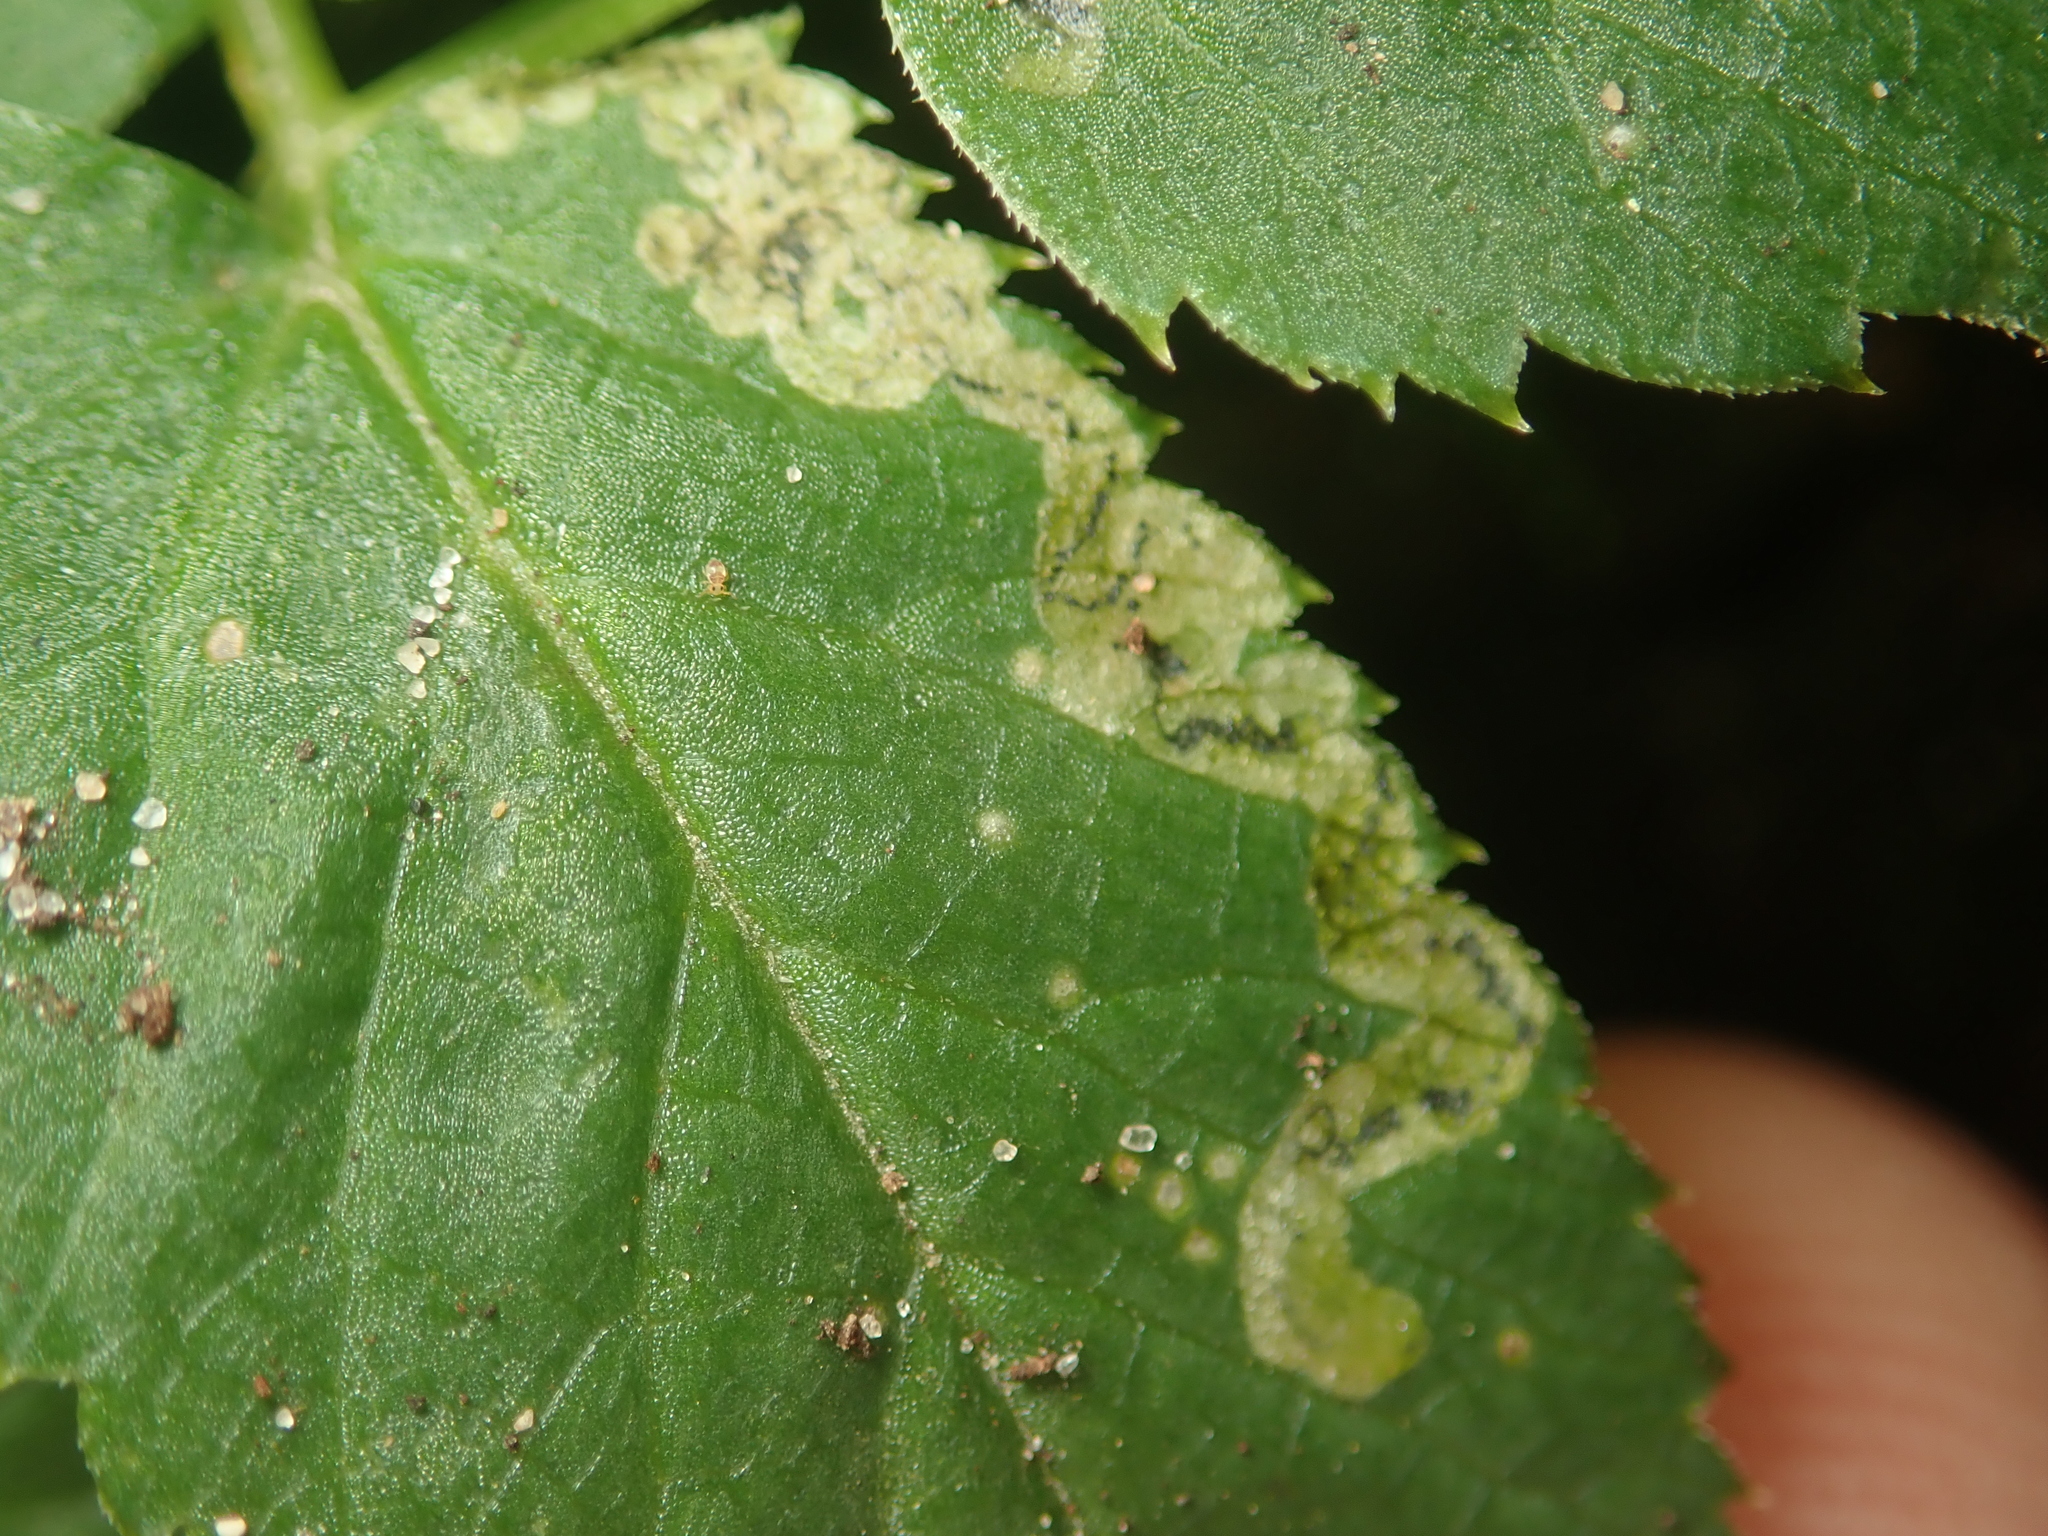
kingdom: Animalia
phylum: Arthropoda
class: Insecta
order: Diptera
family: Agromyzidae
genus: Phytomyza
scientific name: Phytomyza obscurella
